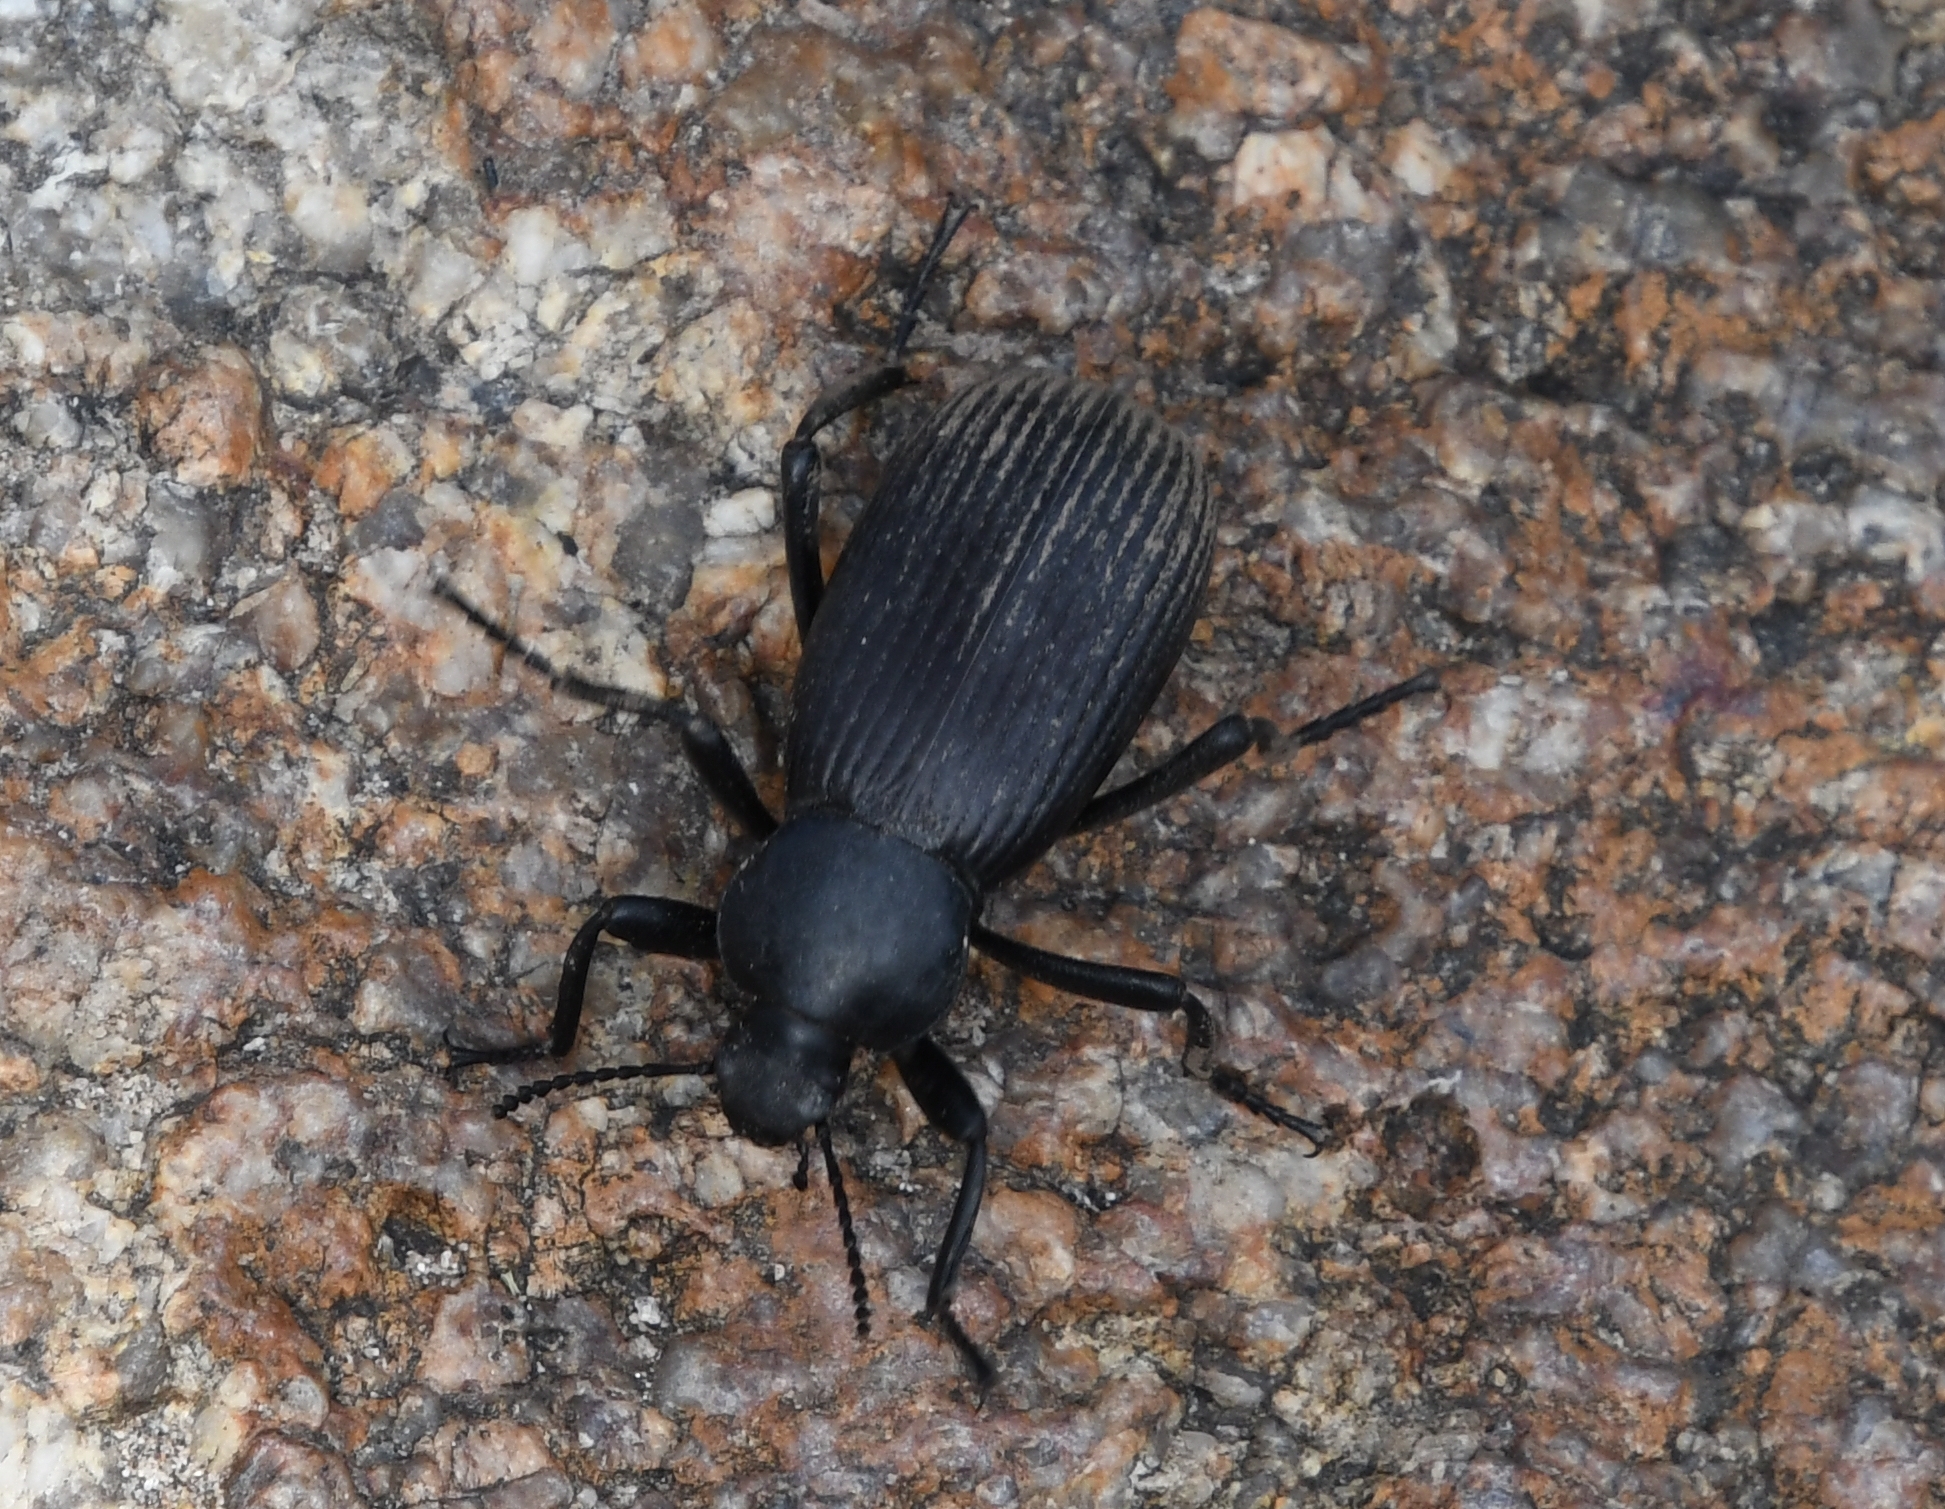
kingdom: Animalia
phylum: Arthropoda
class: Insecta
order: Coleoptera
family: Tenebrionidae
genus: Eleodes
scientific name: Eleodes obscura
